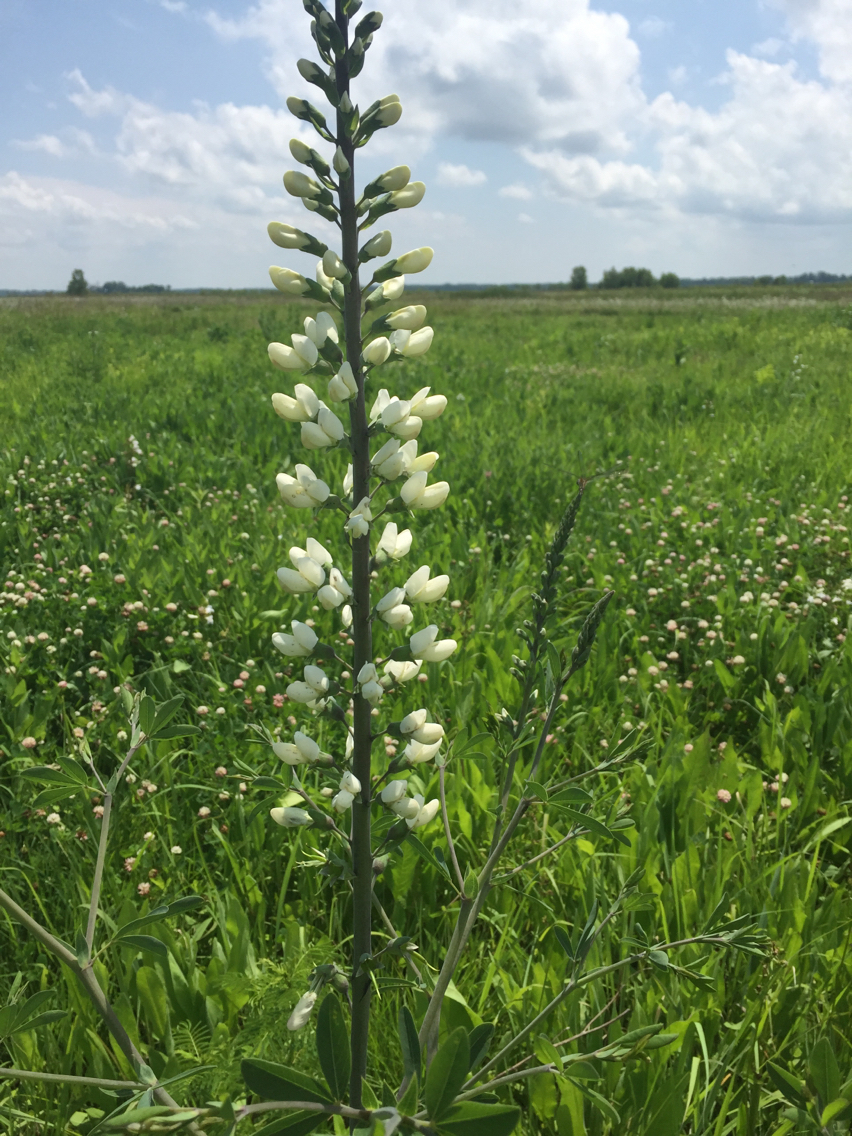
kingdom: Plantae
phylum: Tracheophyta
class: Magnoliopsida
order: Fabales
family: Fabaceae
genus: Baptisia
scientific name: Baptisia alba
